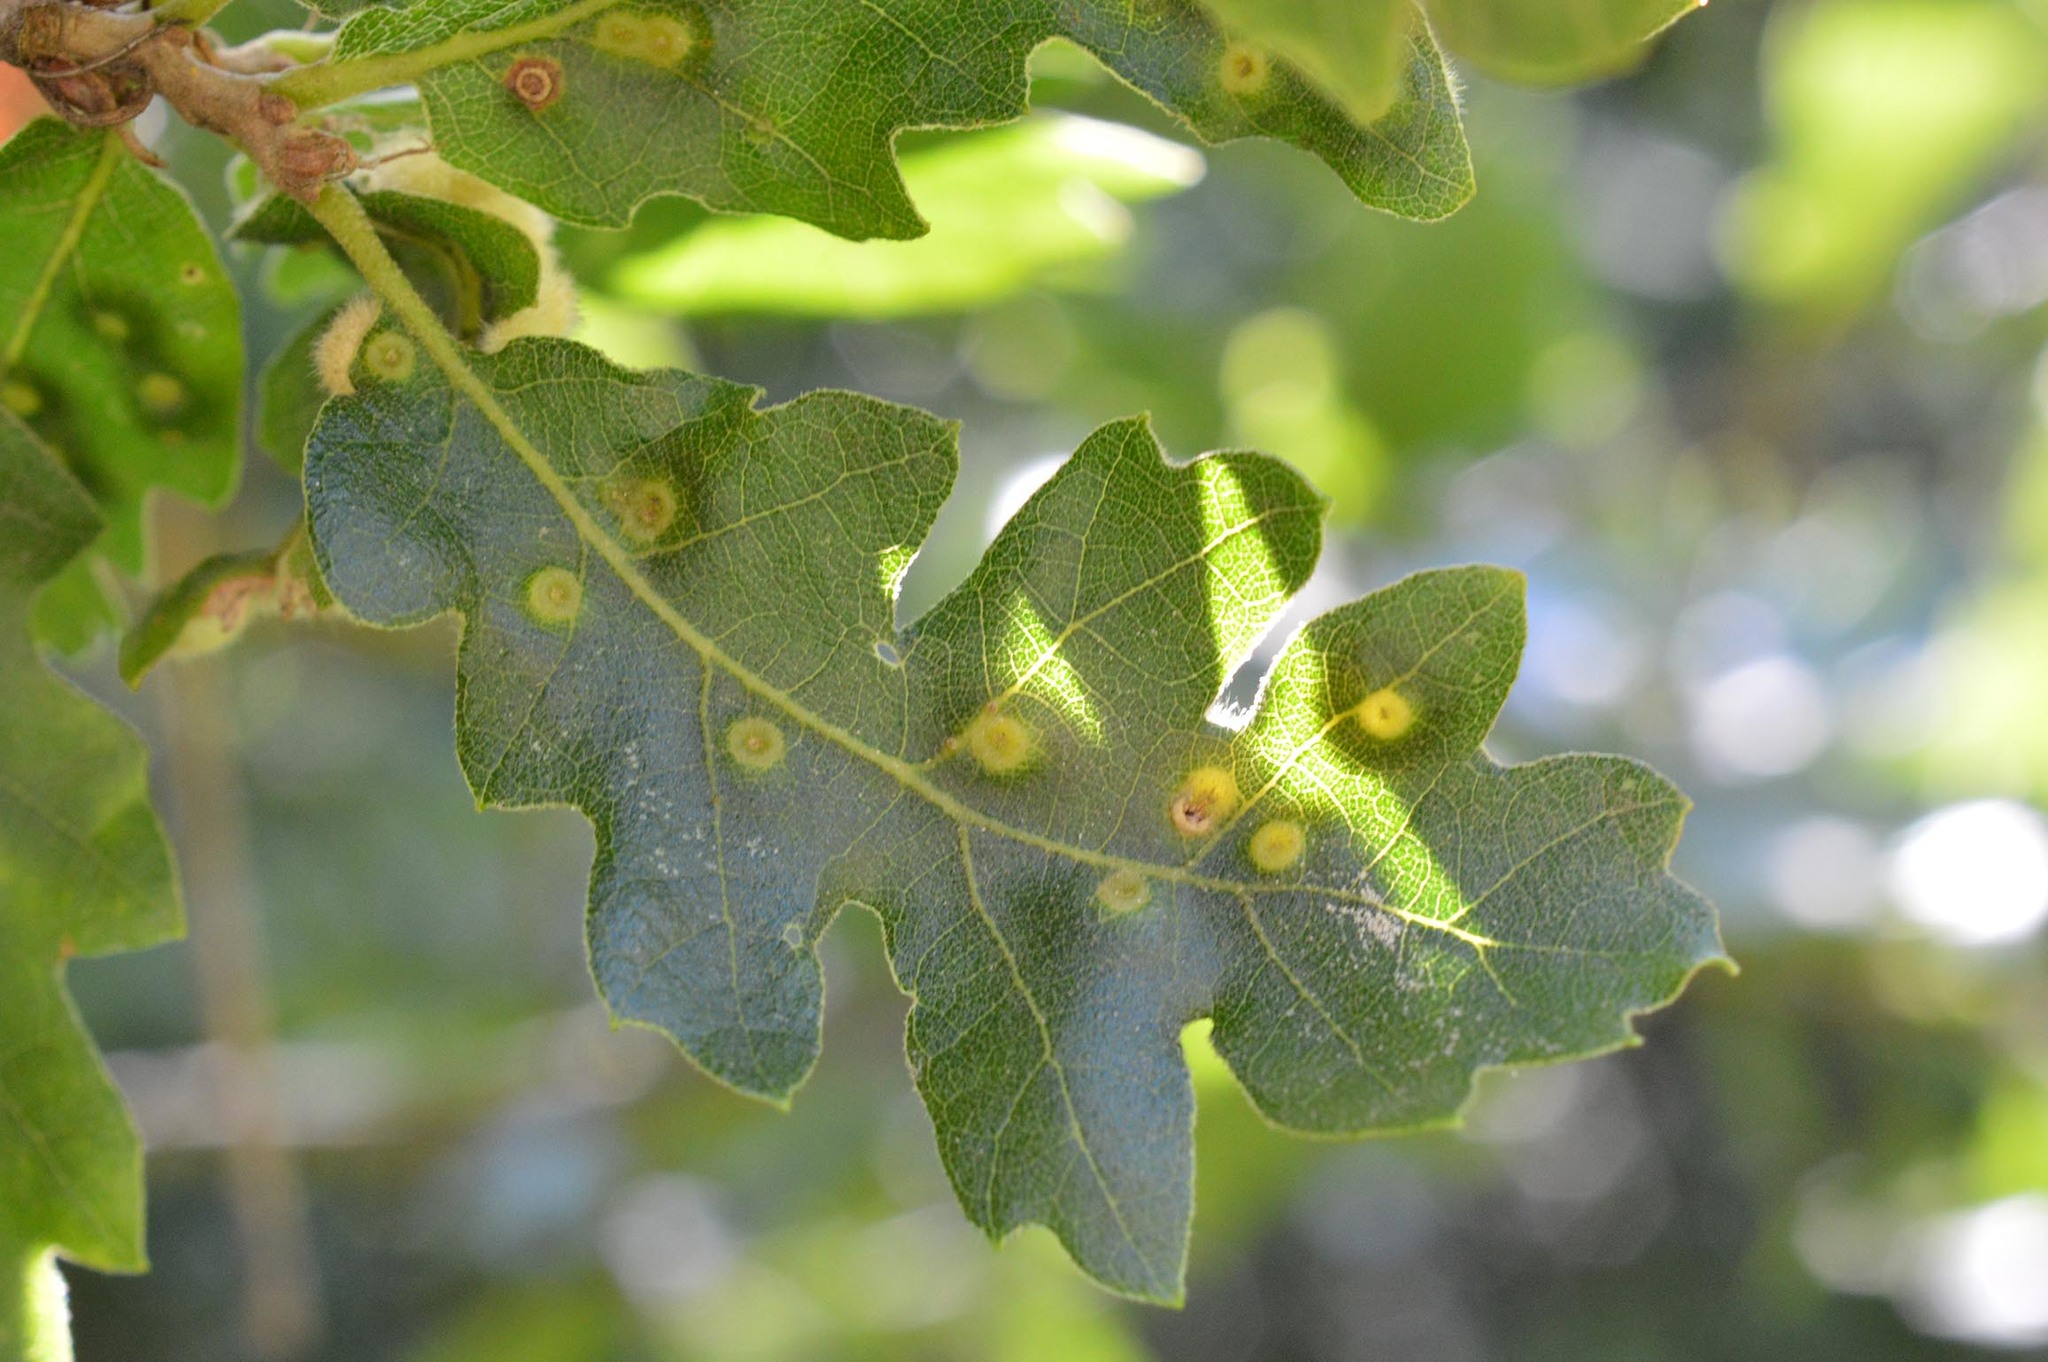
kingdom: Animalia
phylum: Arthropoda
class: Insecta
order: Diptera
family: Cecidomyiidae
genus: Dryomyia
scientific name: Dryomyia circinans
